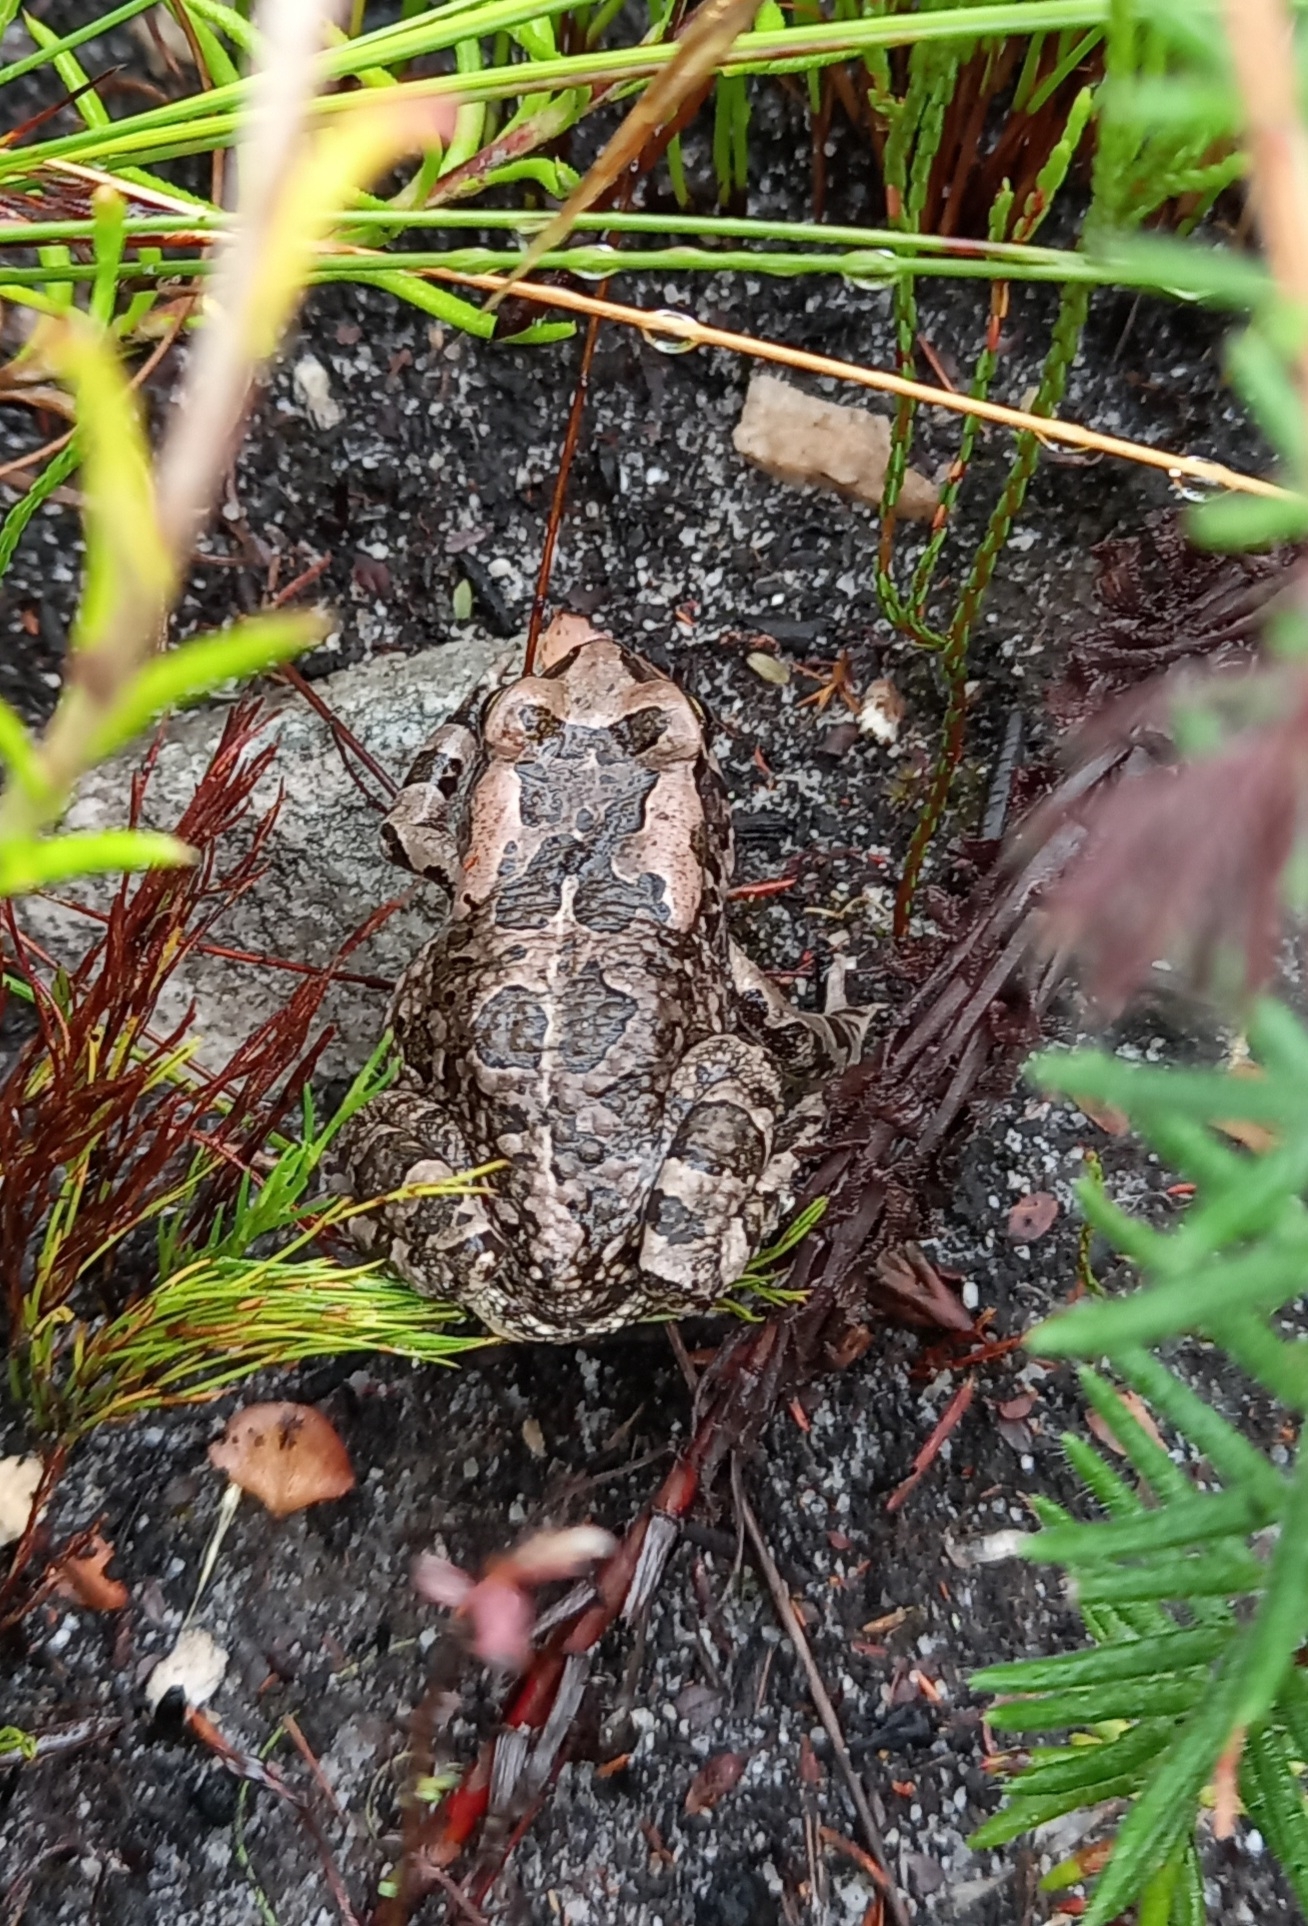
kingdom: Animalia
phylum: Chordata
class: Amphibia
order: Anura
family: Bufonidae
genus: Sclerophrys
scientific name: Sclerophrys capensis
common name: Ranger’s toad
